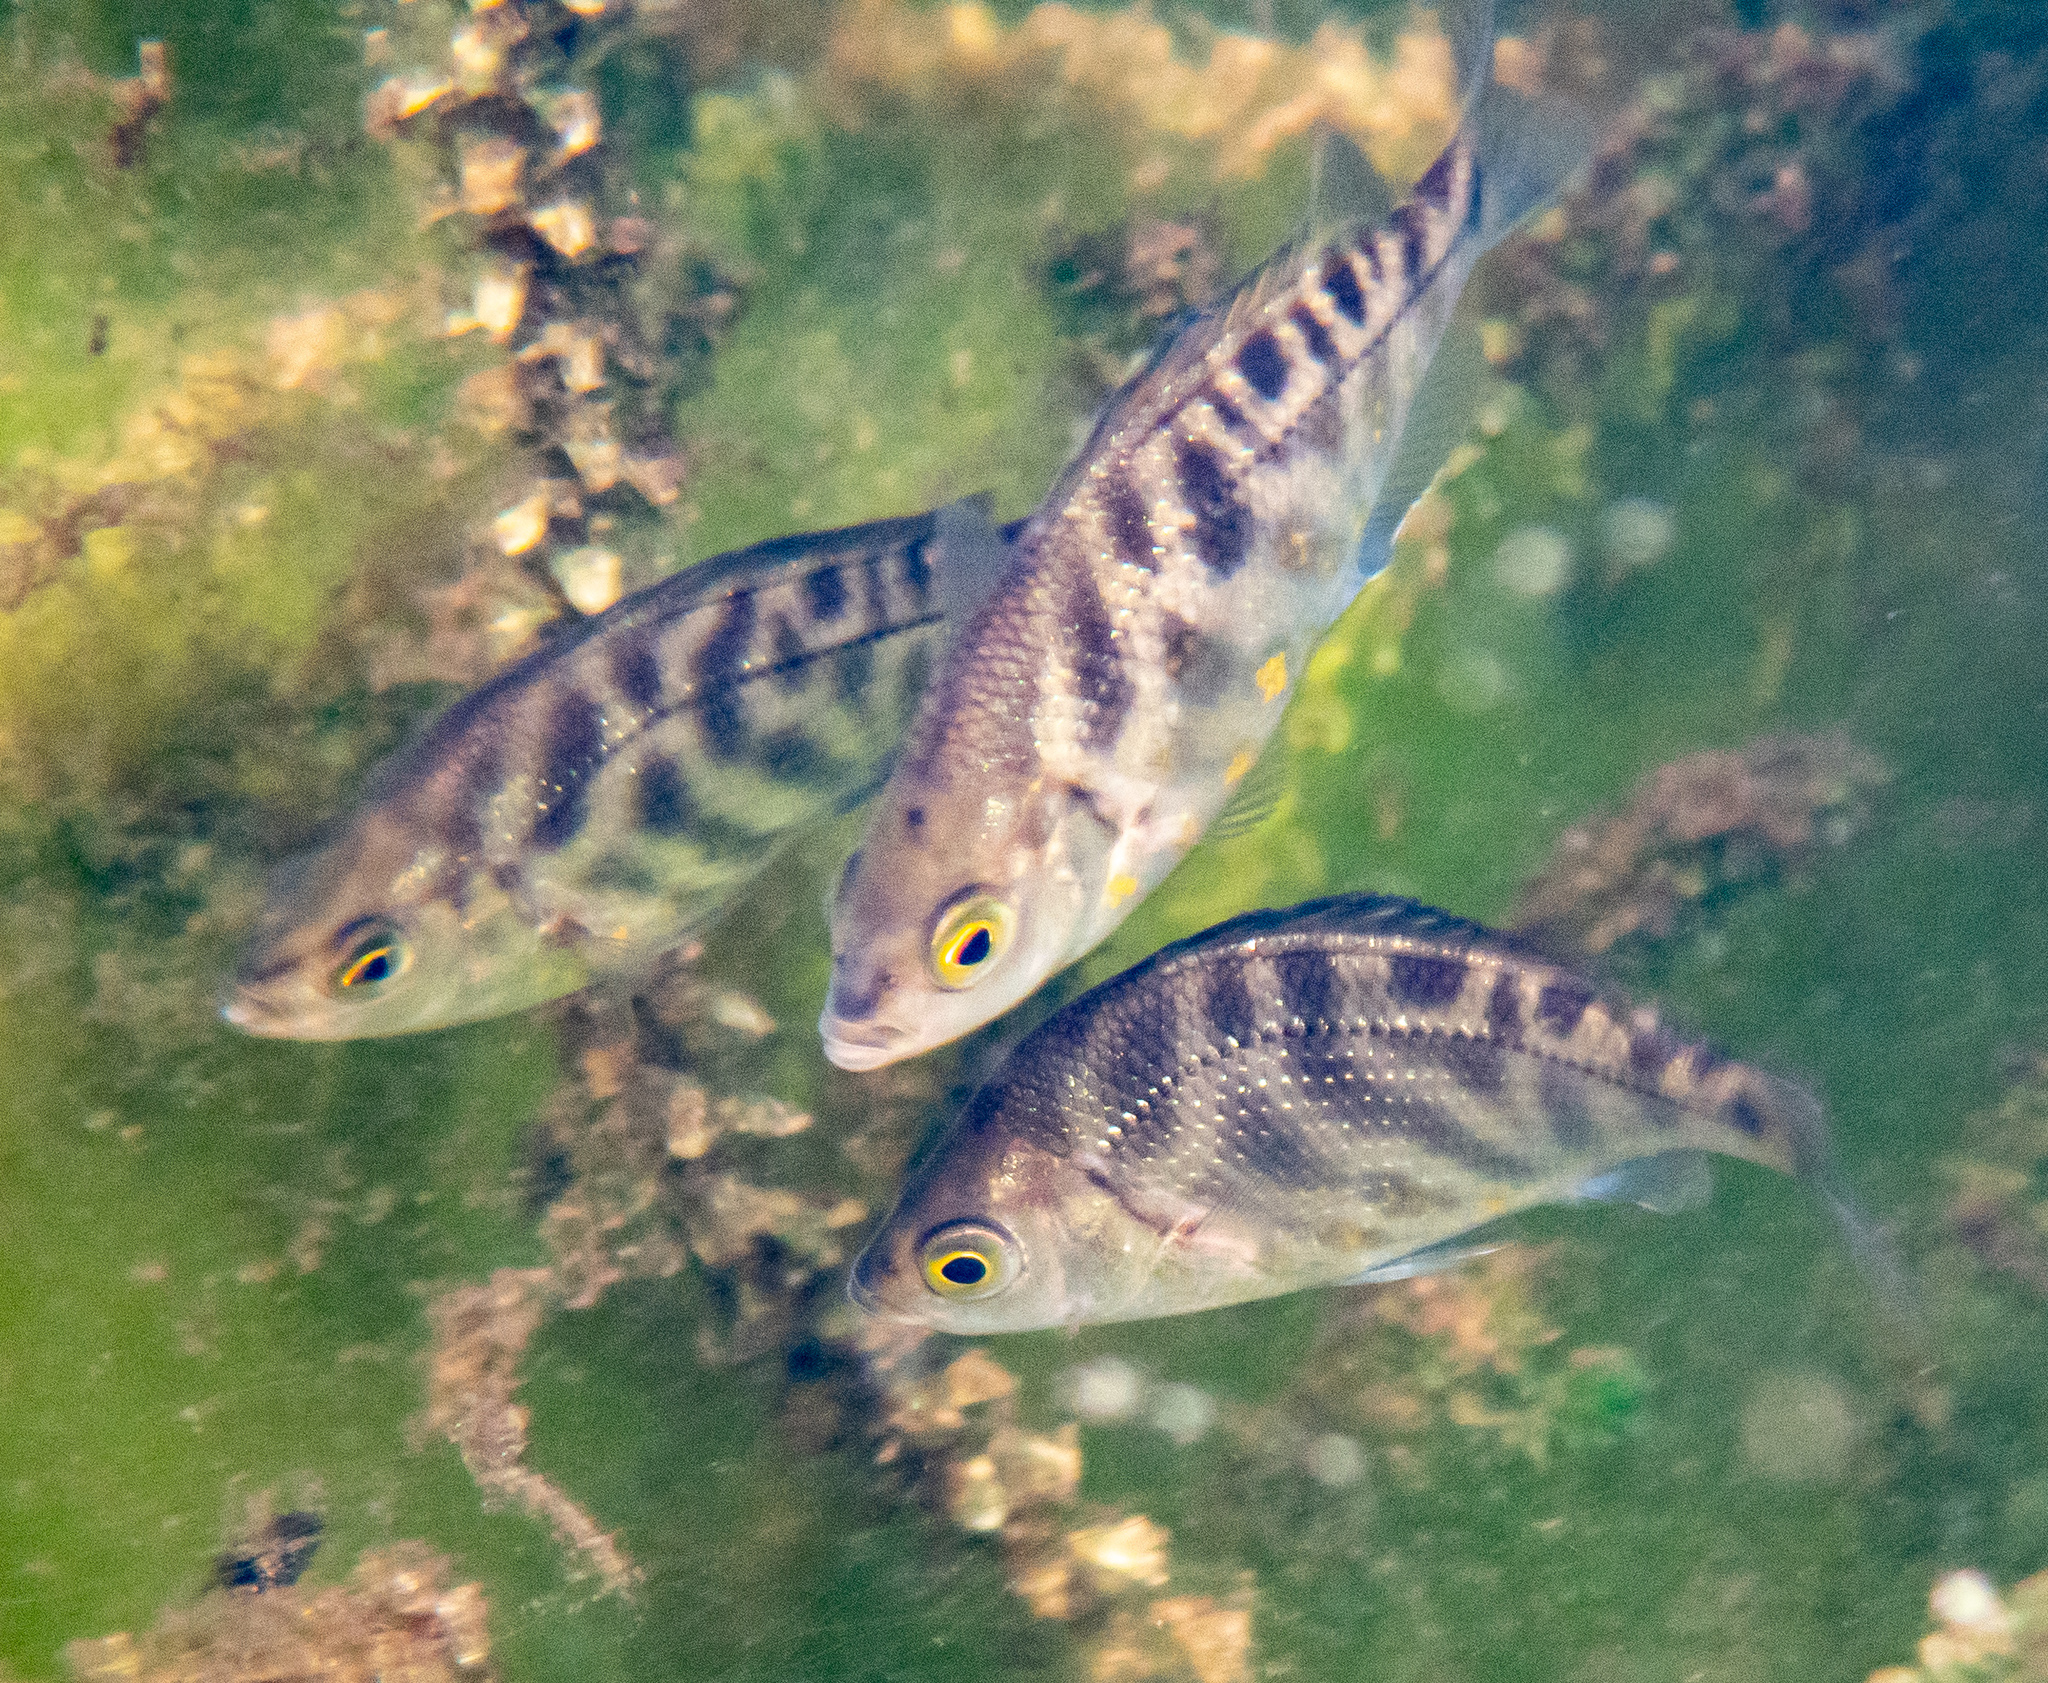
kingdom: Animalia
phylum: Chordata
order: Perciformes
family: Embiotocidae
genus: Hysterocarpus
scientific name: Hysterocarpus traskii
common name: Russian river tule perch
